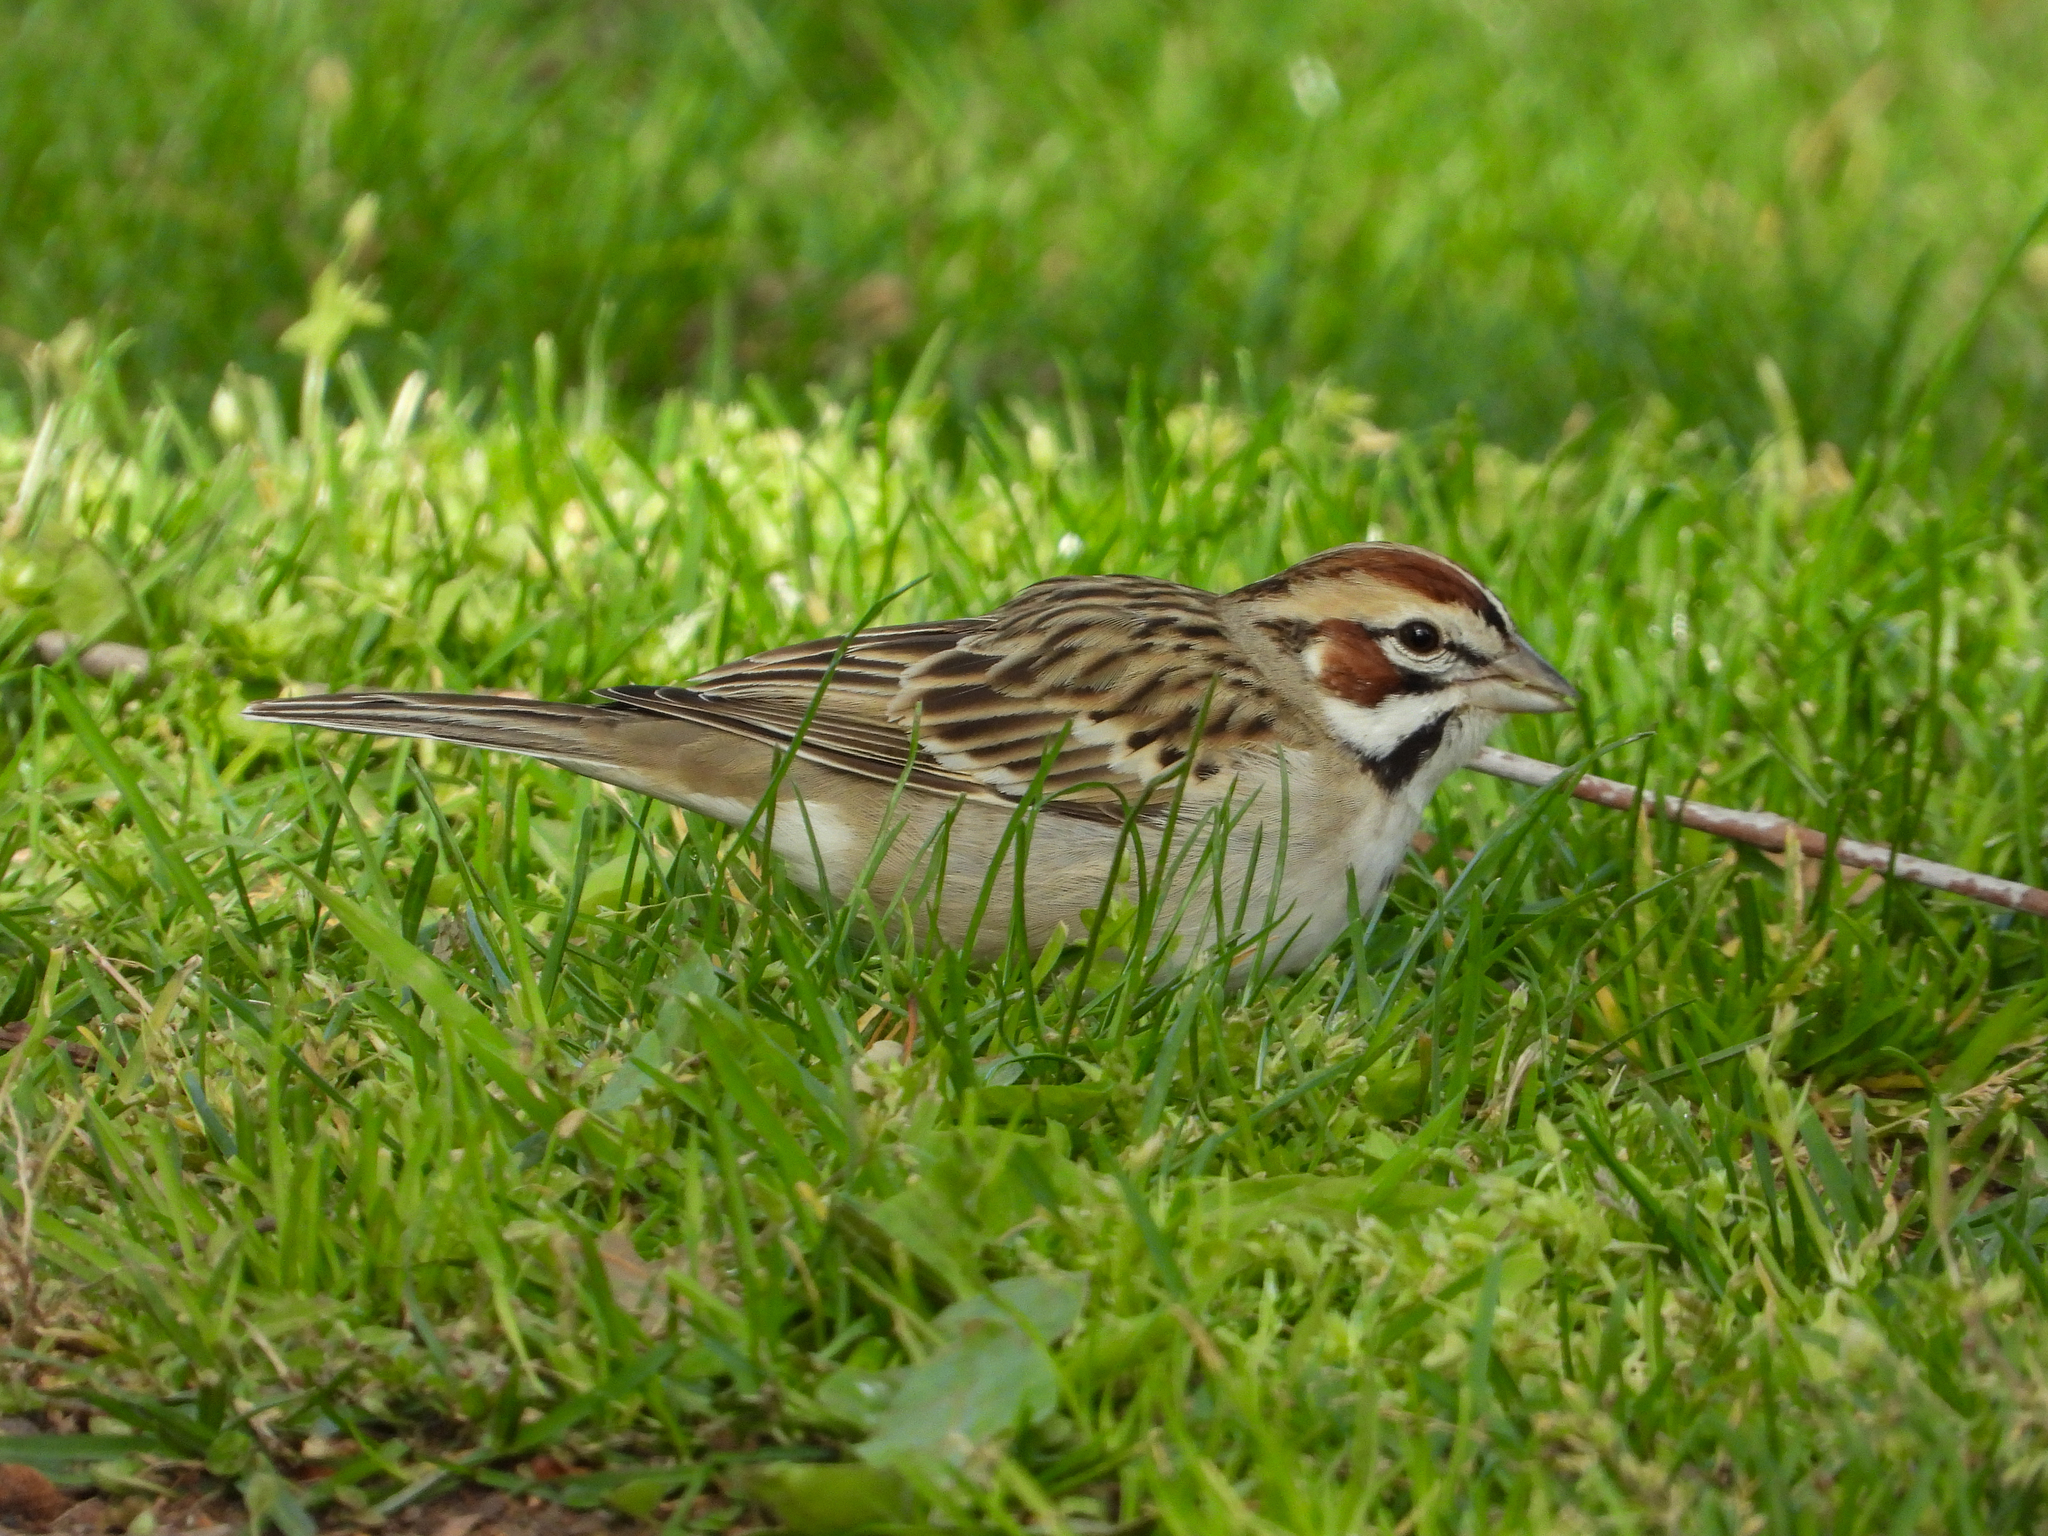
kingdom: Animalia
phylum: Chordata
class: Aves
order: Passeriformes
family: Passerellidae
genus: Chondestes
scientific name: Chondestes grammacus
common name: Lark sparrow
